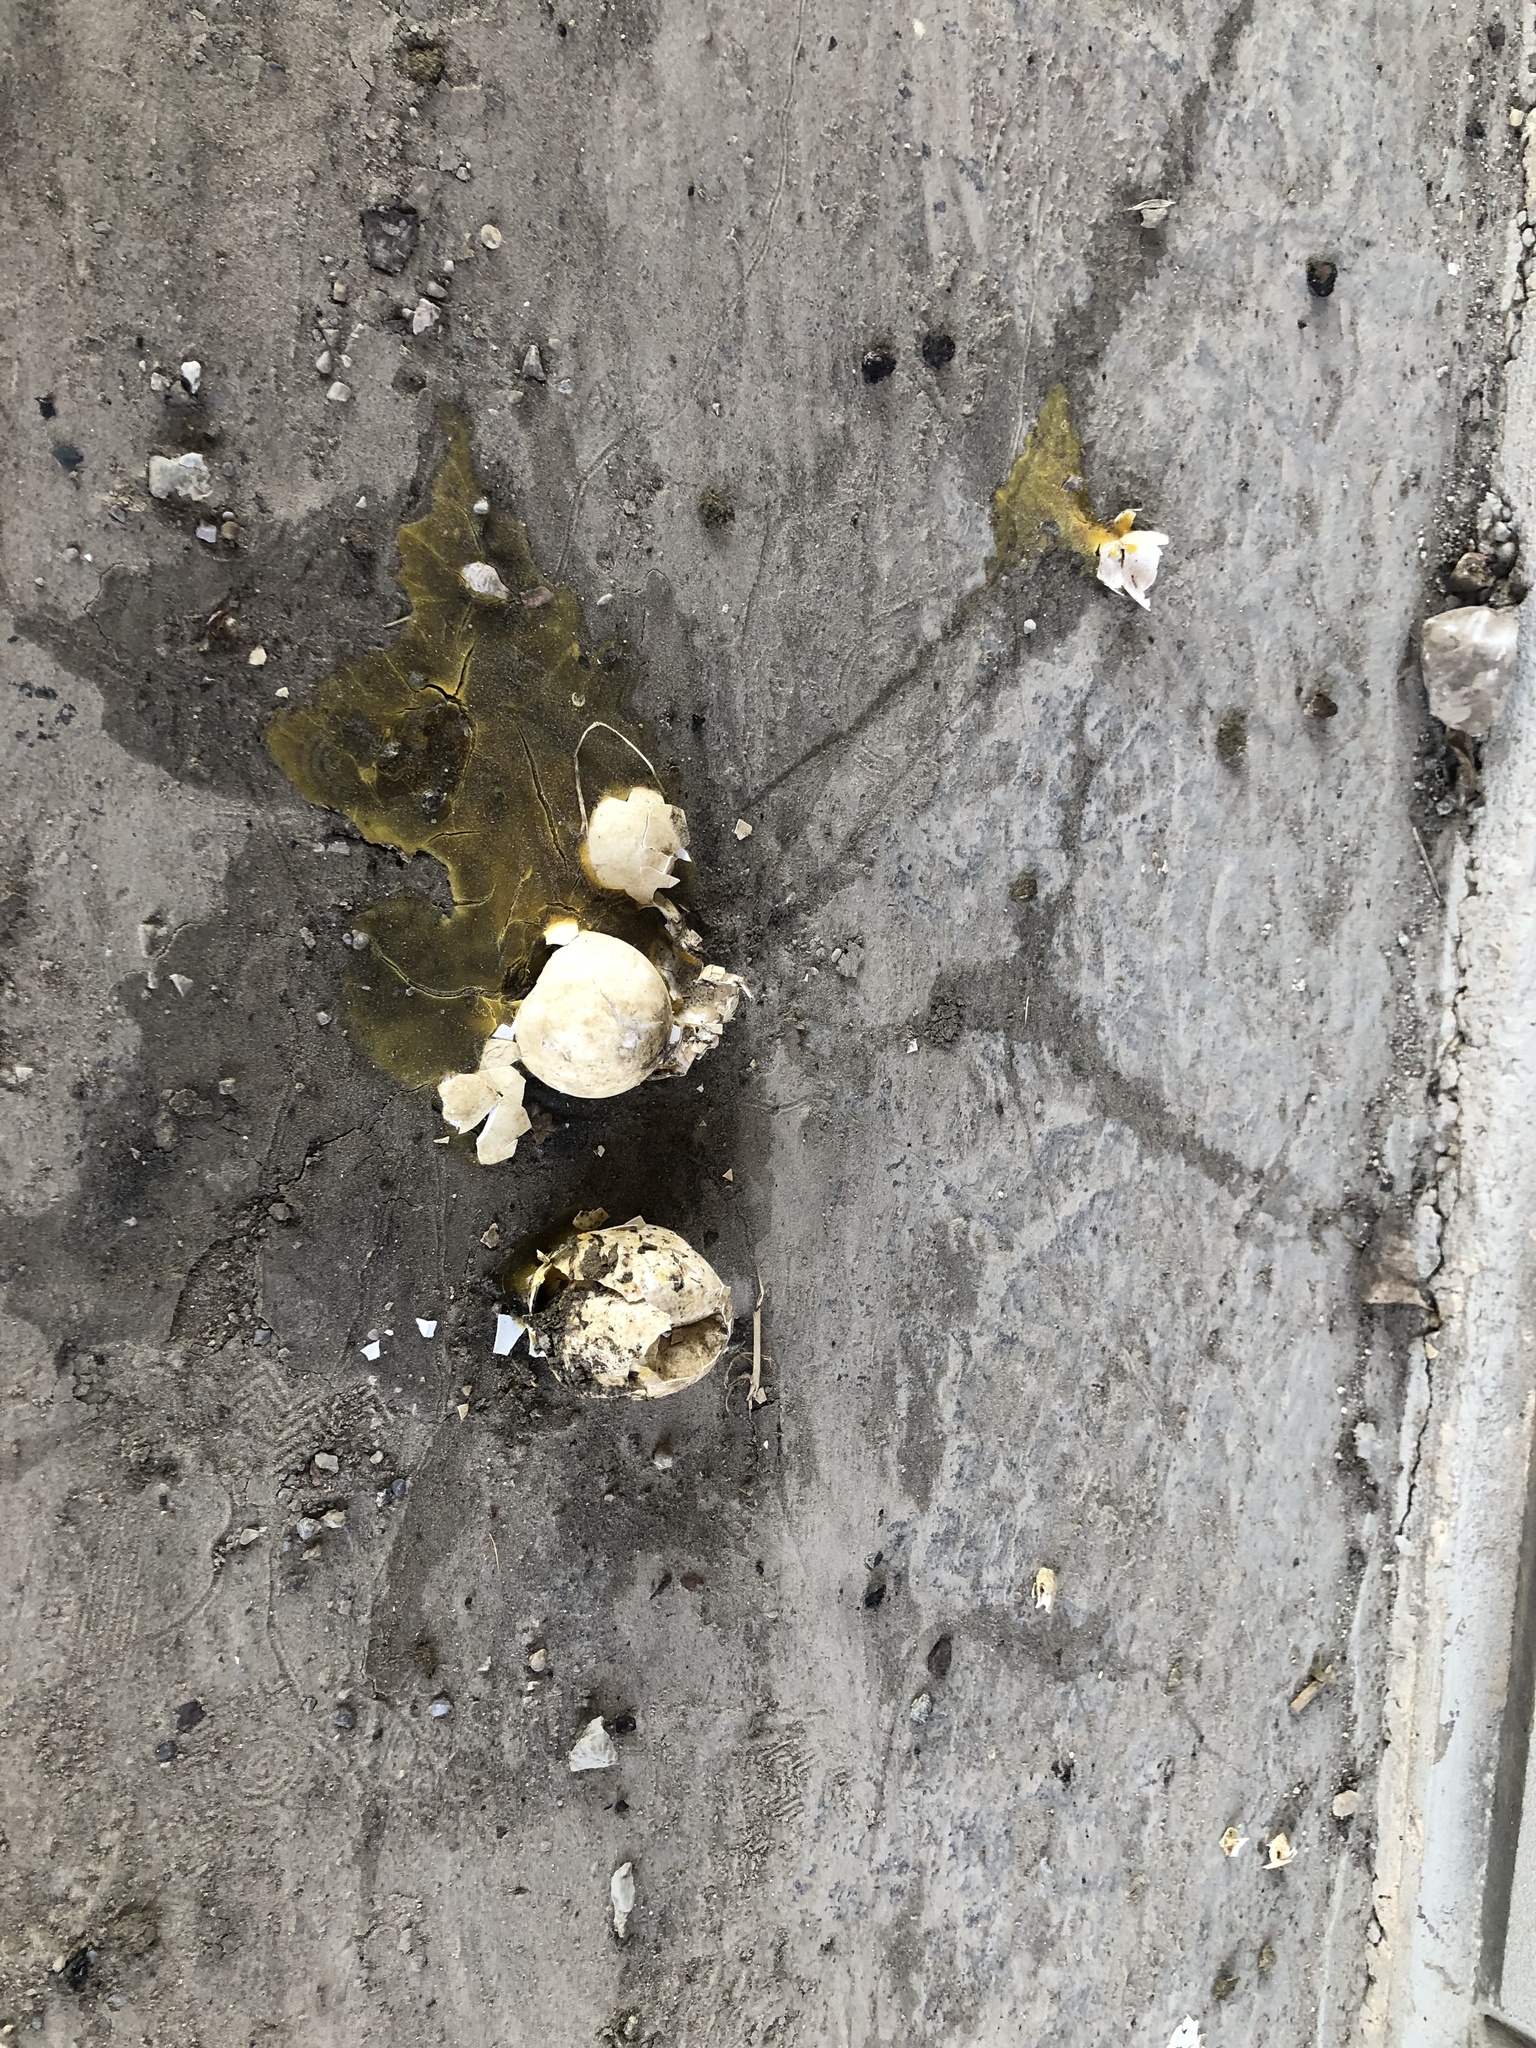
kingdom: Animalia
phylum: Chordata
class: Aves
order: Anseriformes
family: Anatidae
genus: Branta
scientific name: Branta canadensis
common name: Canada goose
